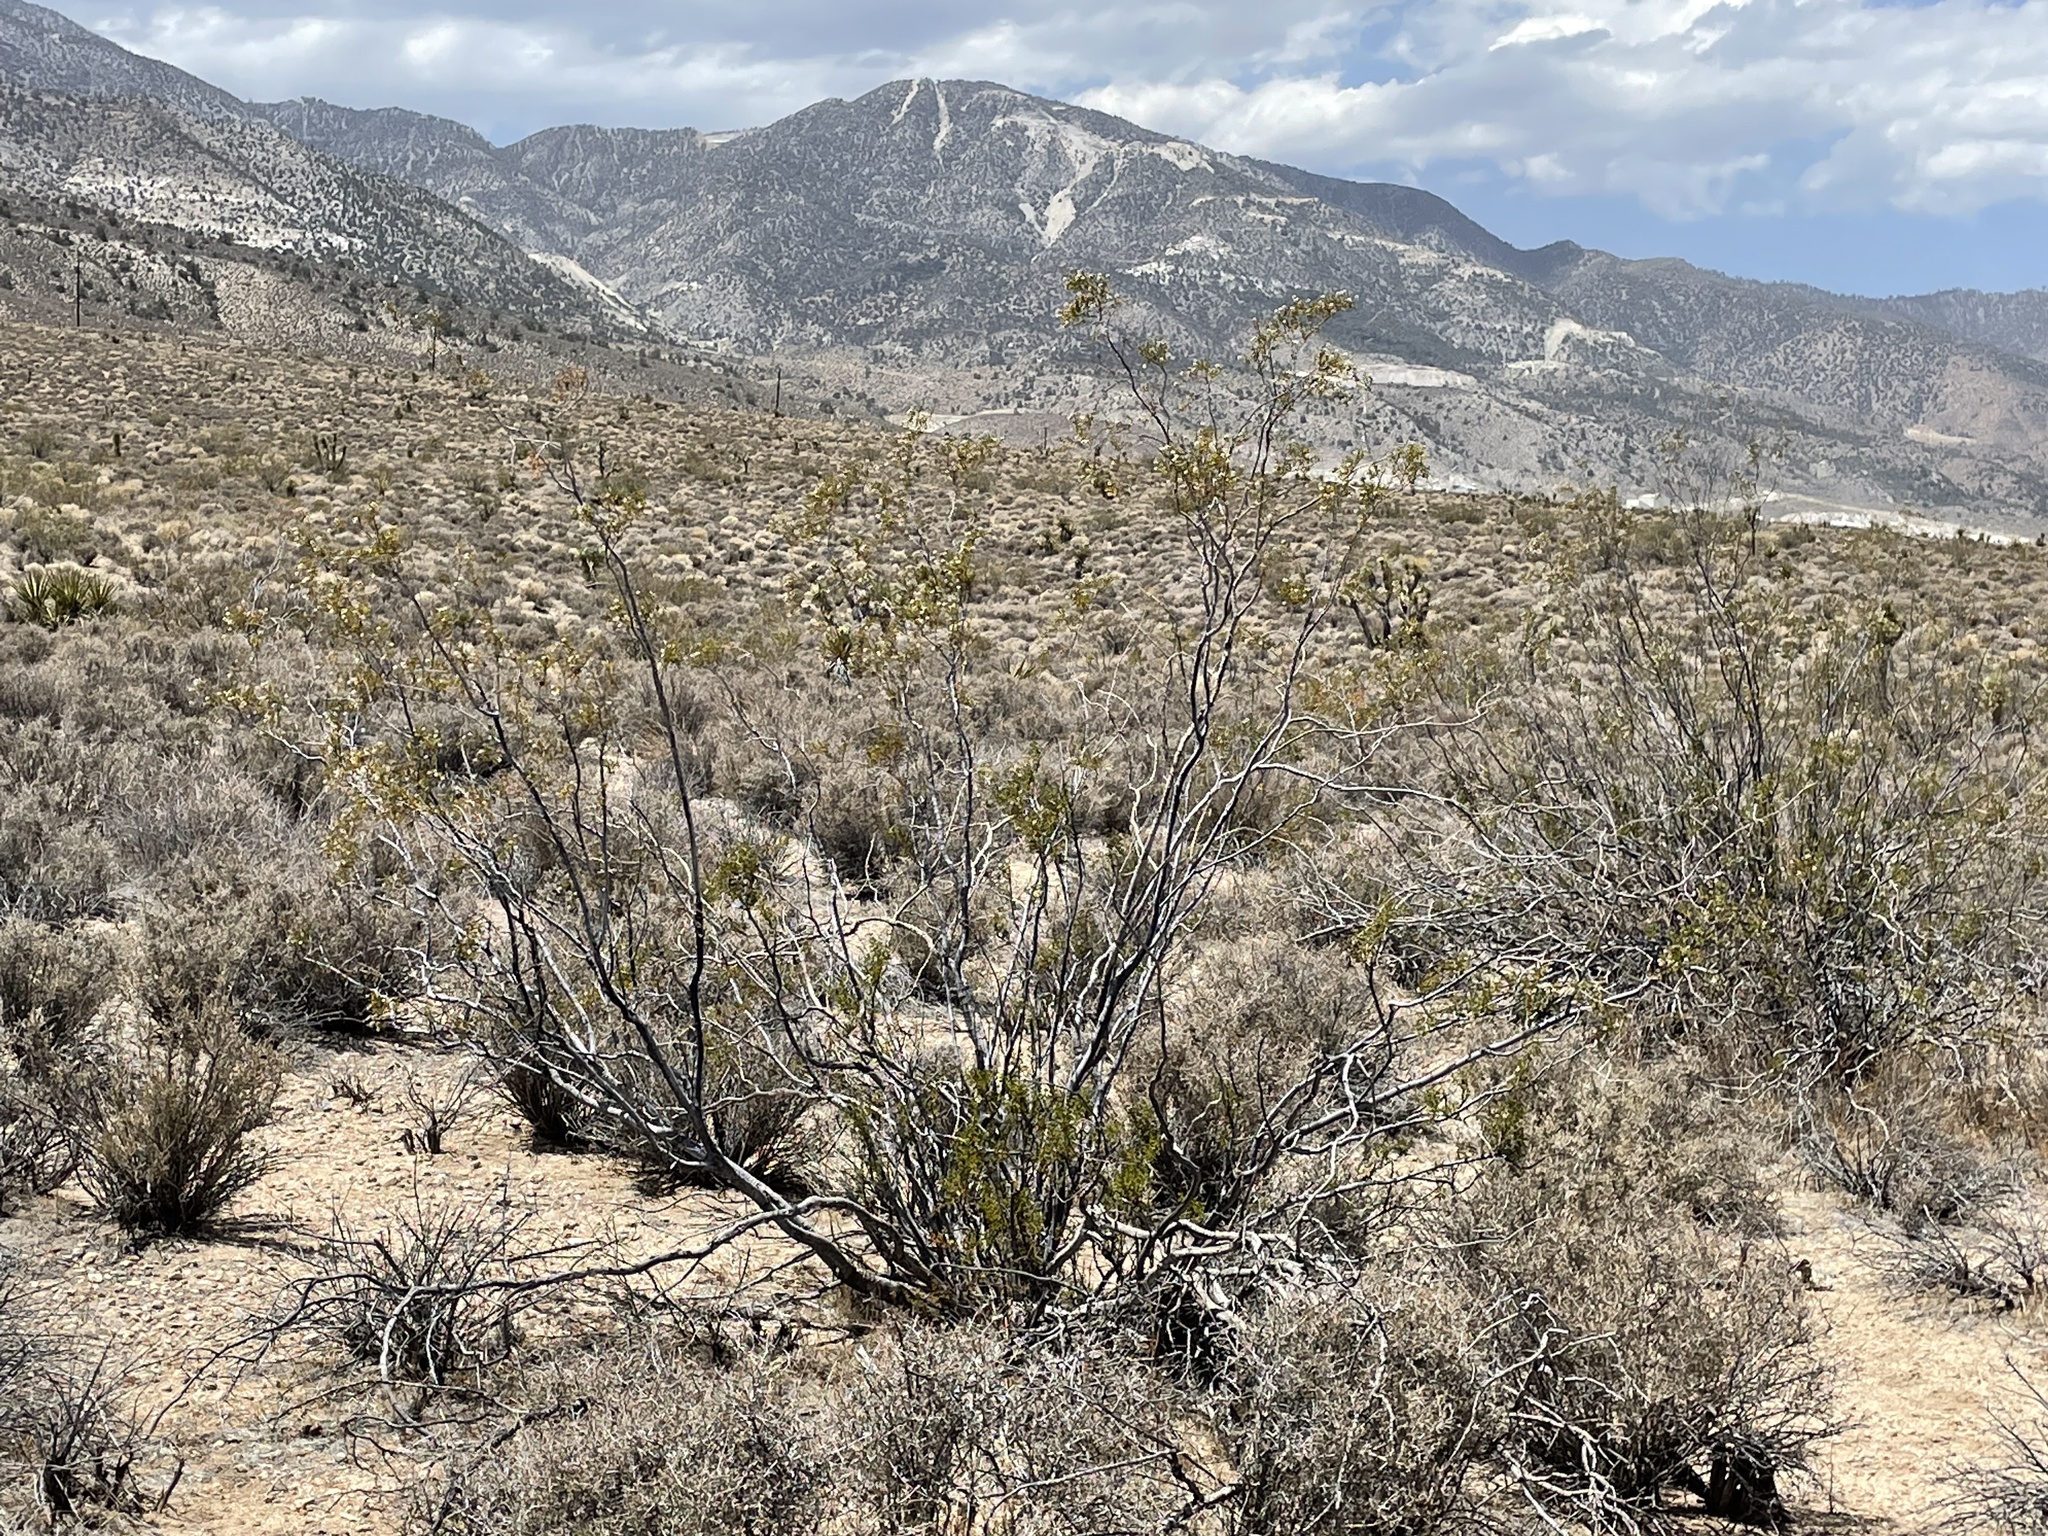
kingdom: Plantae
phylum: Tracheophyta
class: Magnoliopsida
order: Zygophyllales
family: Zygophyllaceae
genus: Larrea
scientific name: Larrea tridentata
